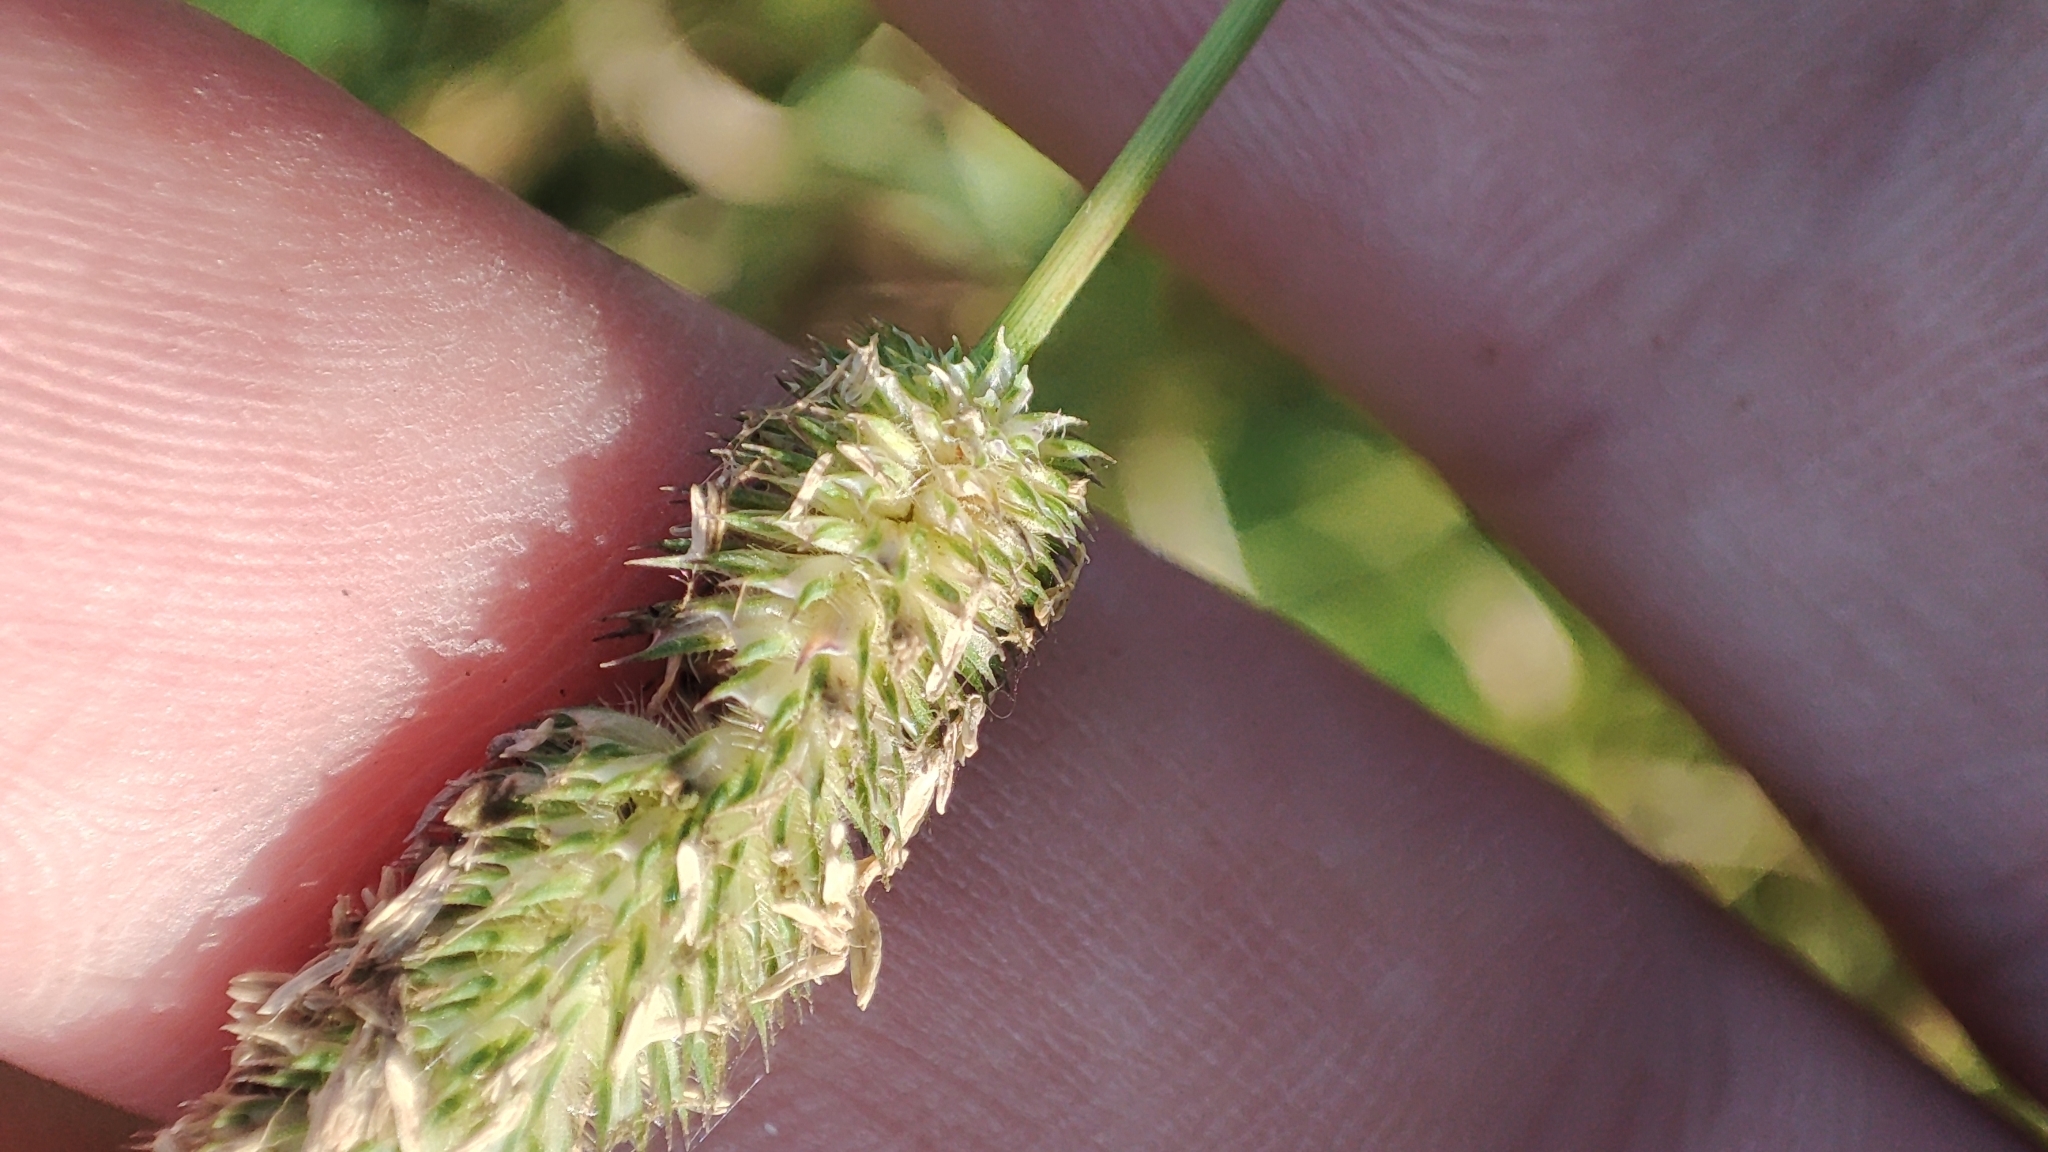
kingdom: Plantae
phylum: Tracheophyta
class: Liliopsida
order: Poales
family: Poaceae
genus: Phleum
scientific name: Phleum pratense
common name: Timothy grass
